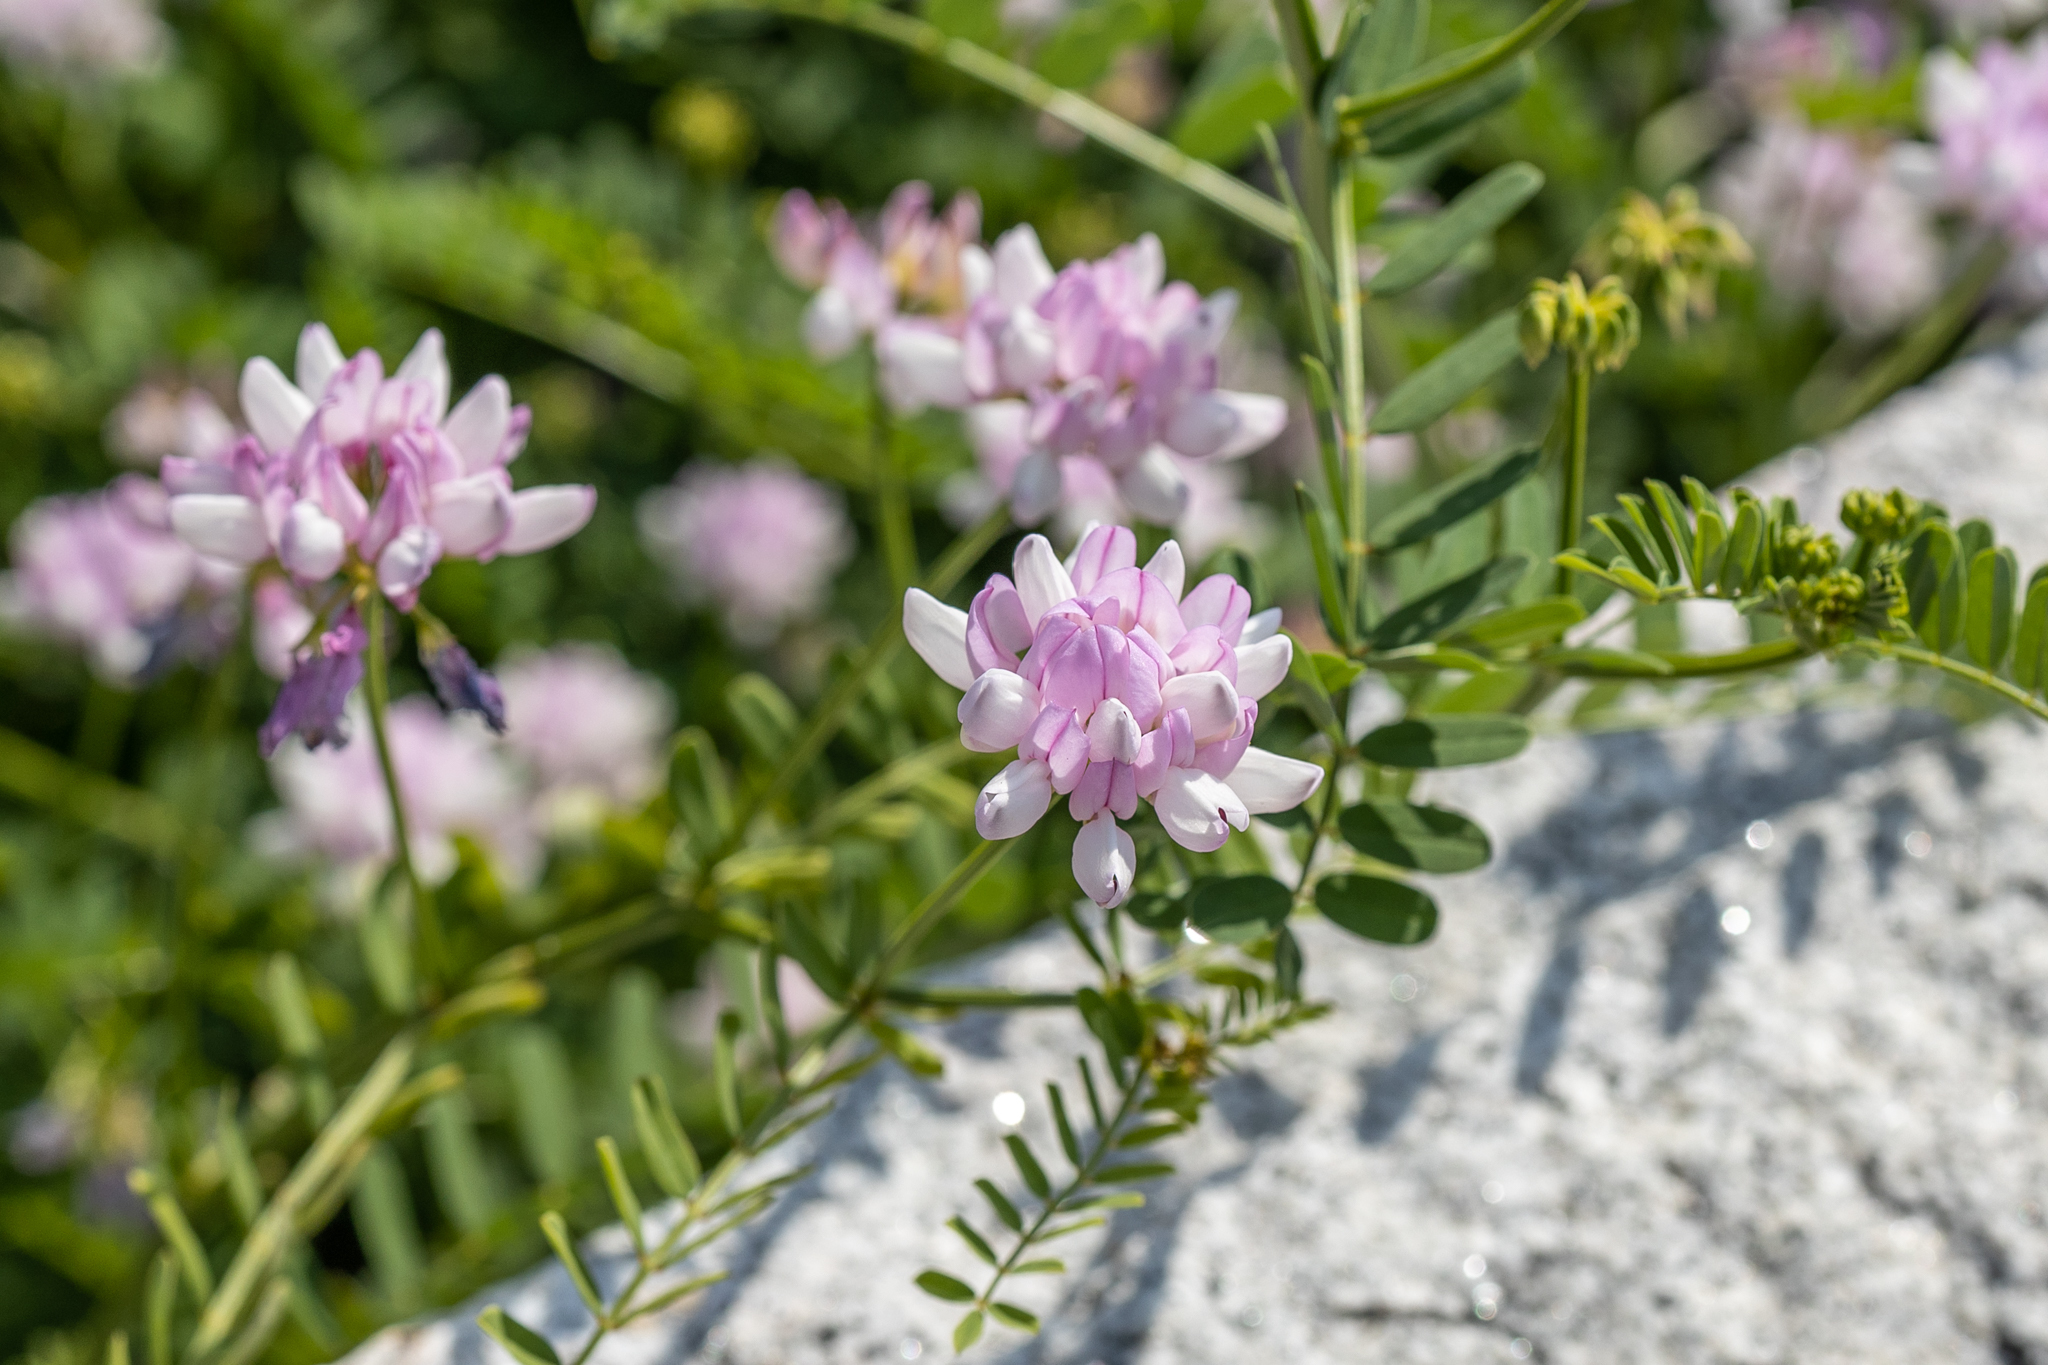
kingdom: Plantae
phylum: Tracheophyta
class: Magnoliopsida
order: Fabales
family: Fabaceae
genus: Coronilla
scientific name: Coronilla varia
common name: Crownvetch
